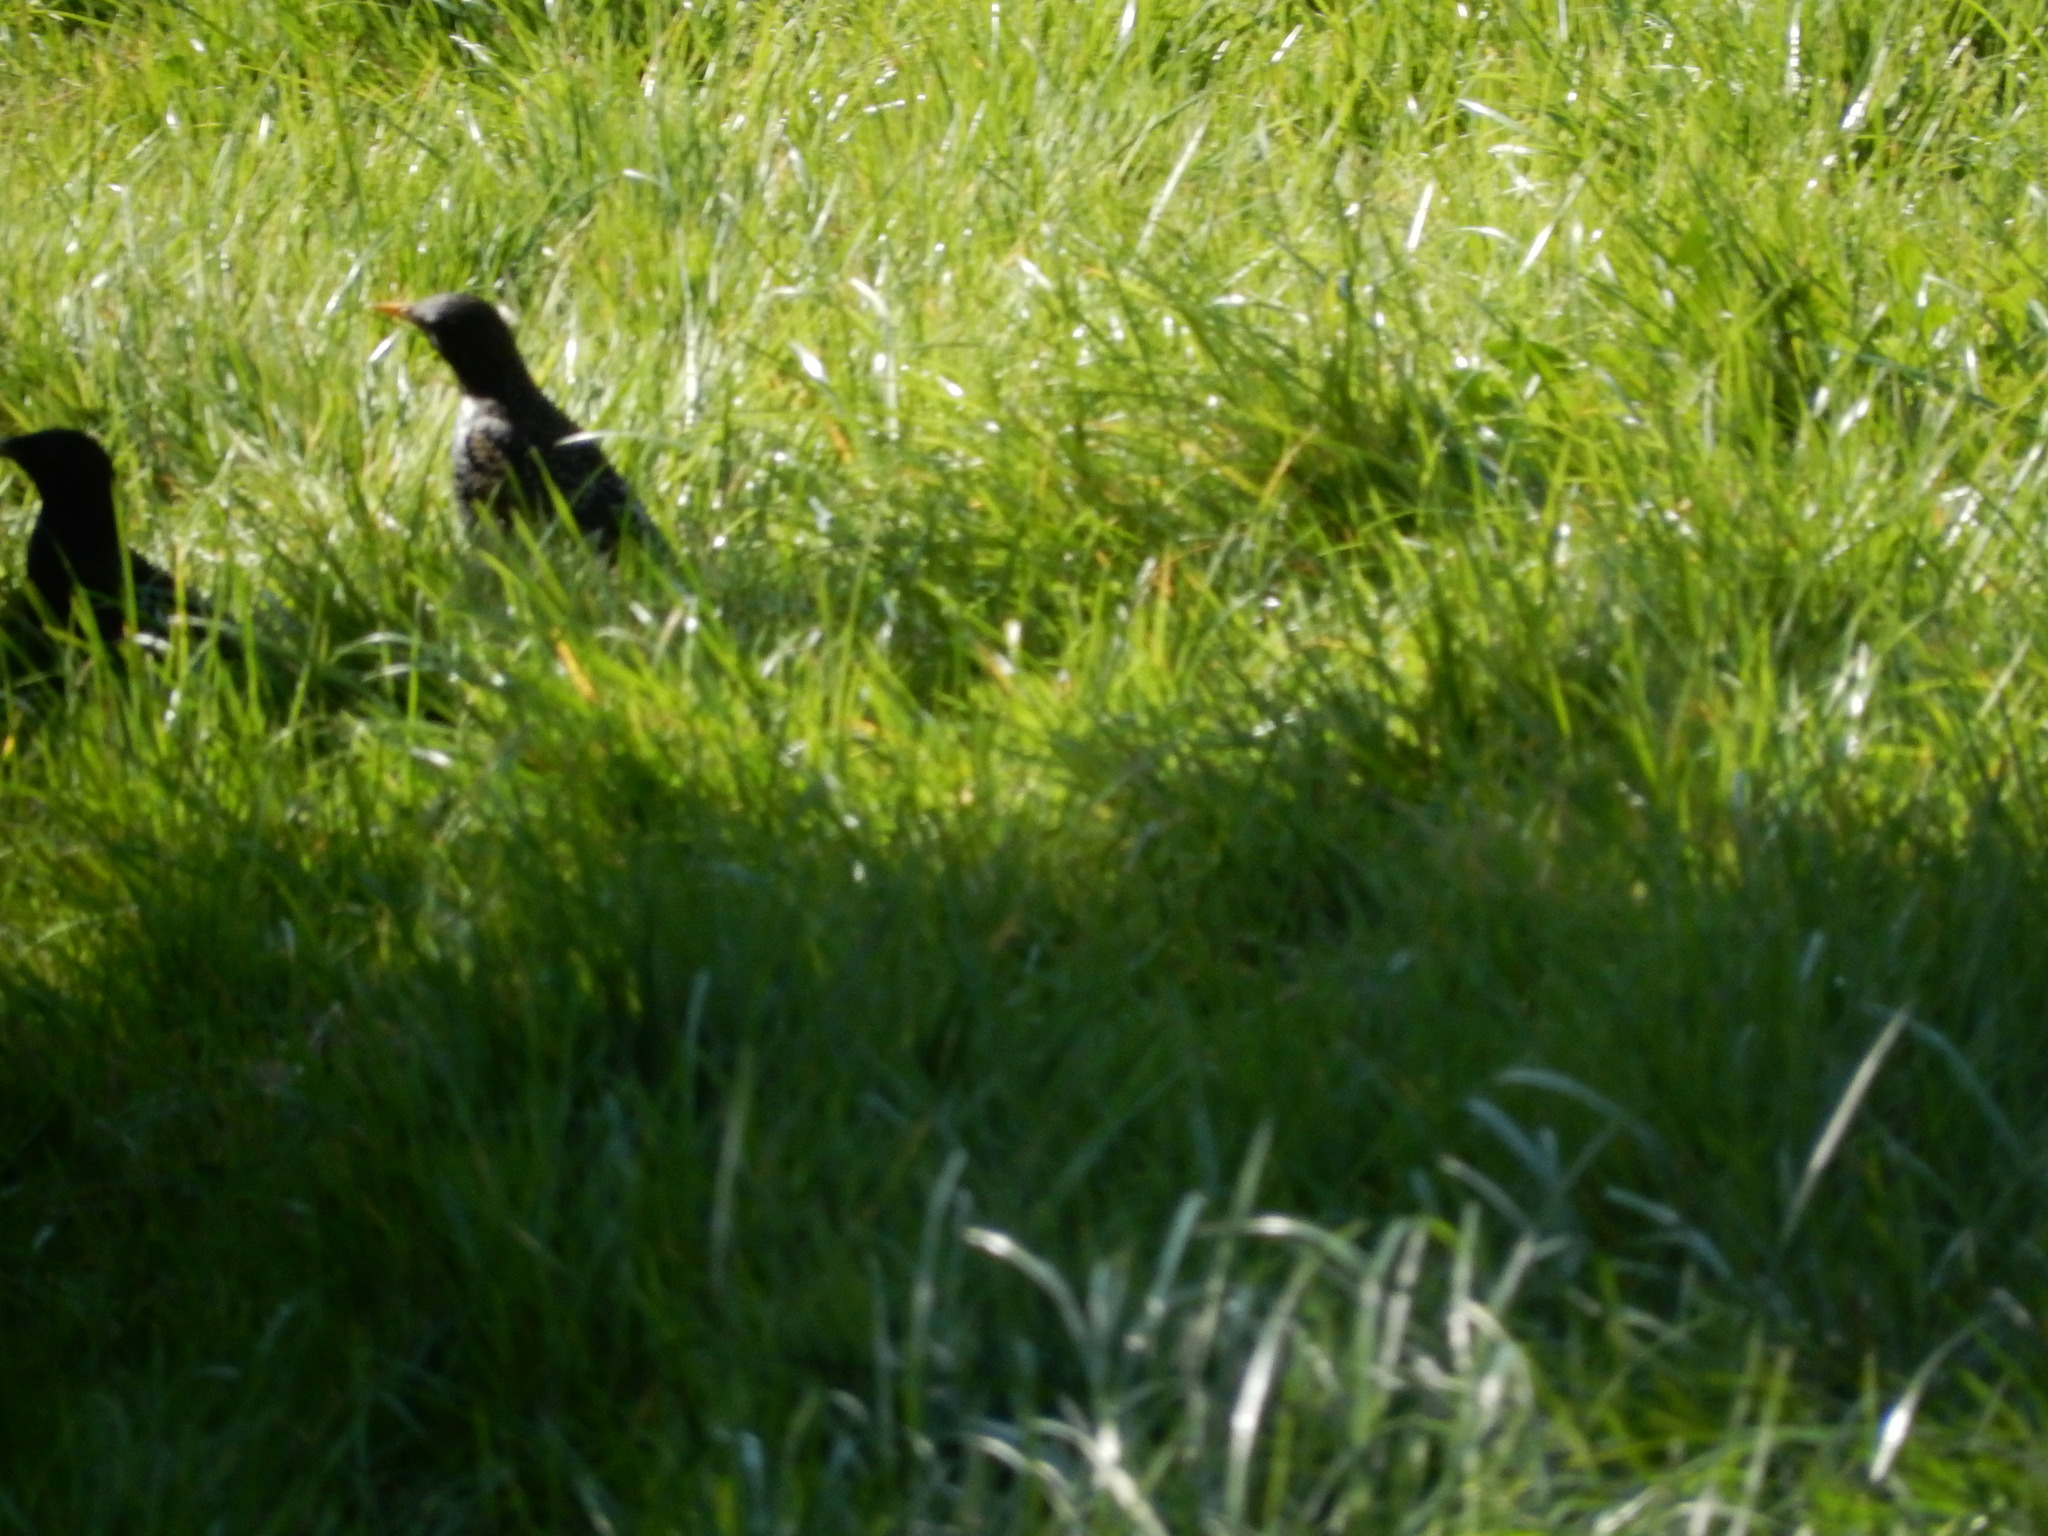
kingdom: Animalia
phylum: Chordata
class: Aves
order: Passeriformes
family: Turdidae
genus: Turdus
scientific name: Turdus merula
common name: Common blackbird
